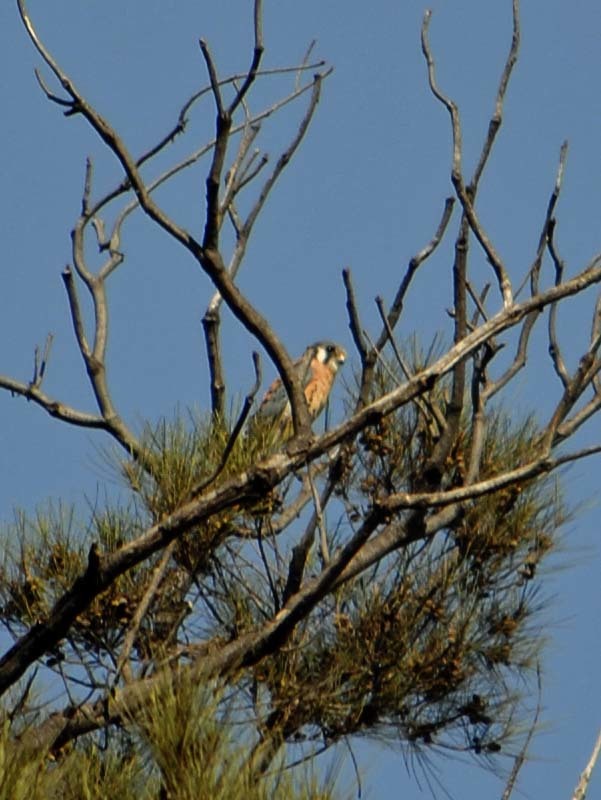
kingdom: Animalia
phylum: Chordata
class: Aves
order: Falconiformes
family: Falconidae
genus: Falco
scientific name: Falco sparverius
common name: American kestrel
